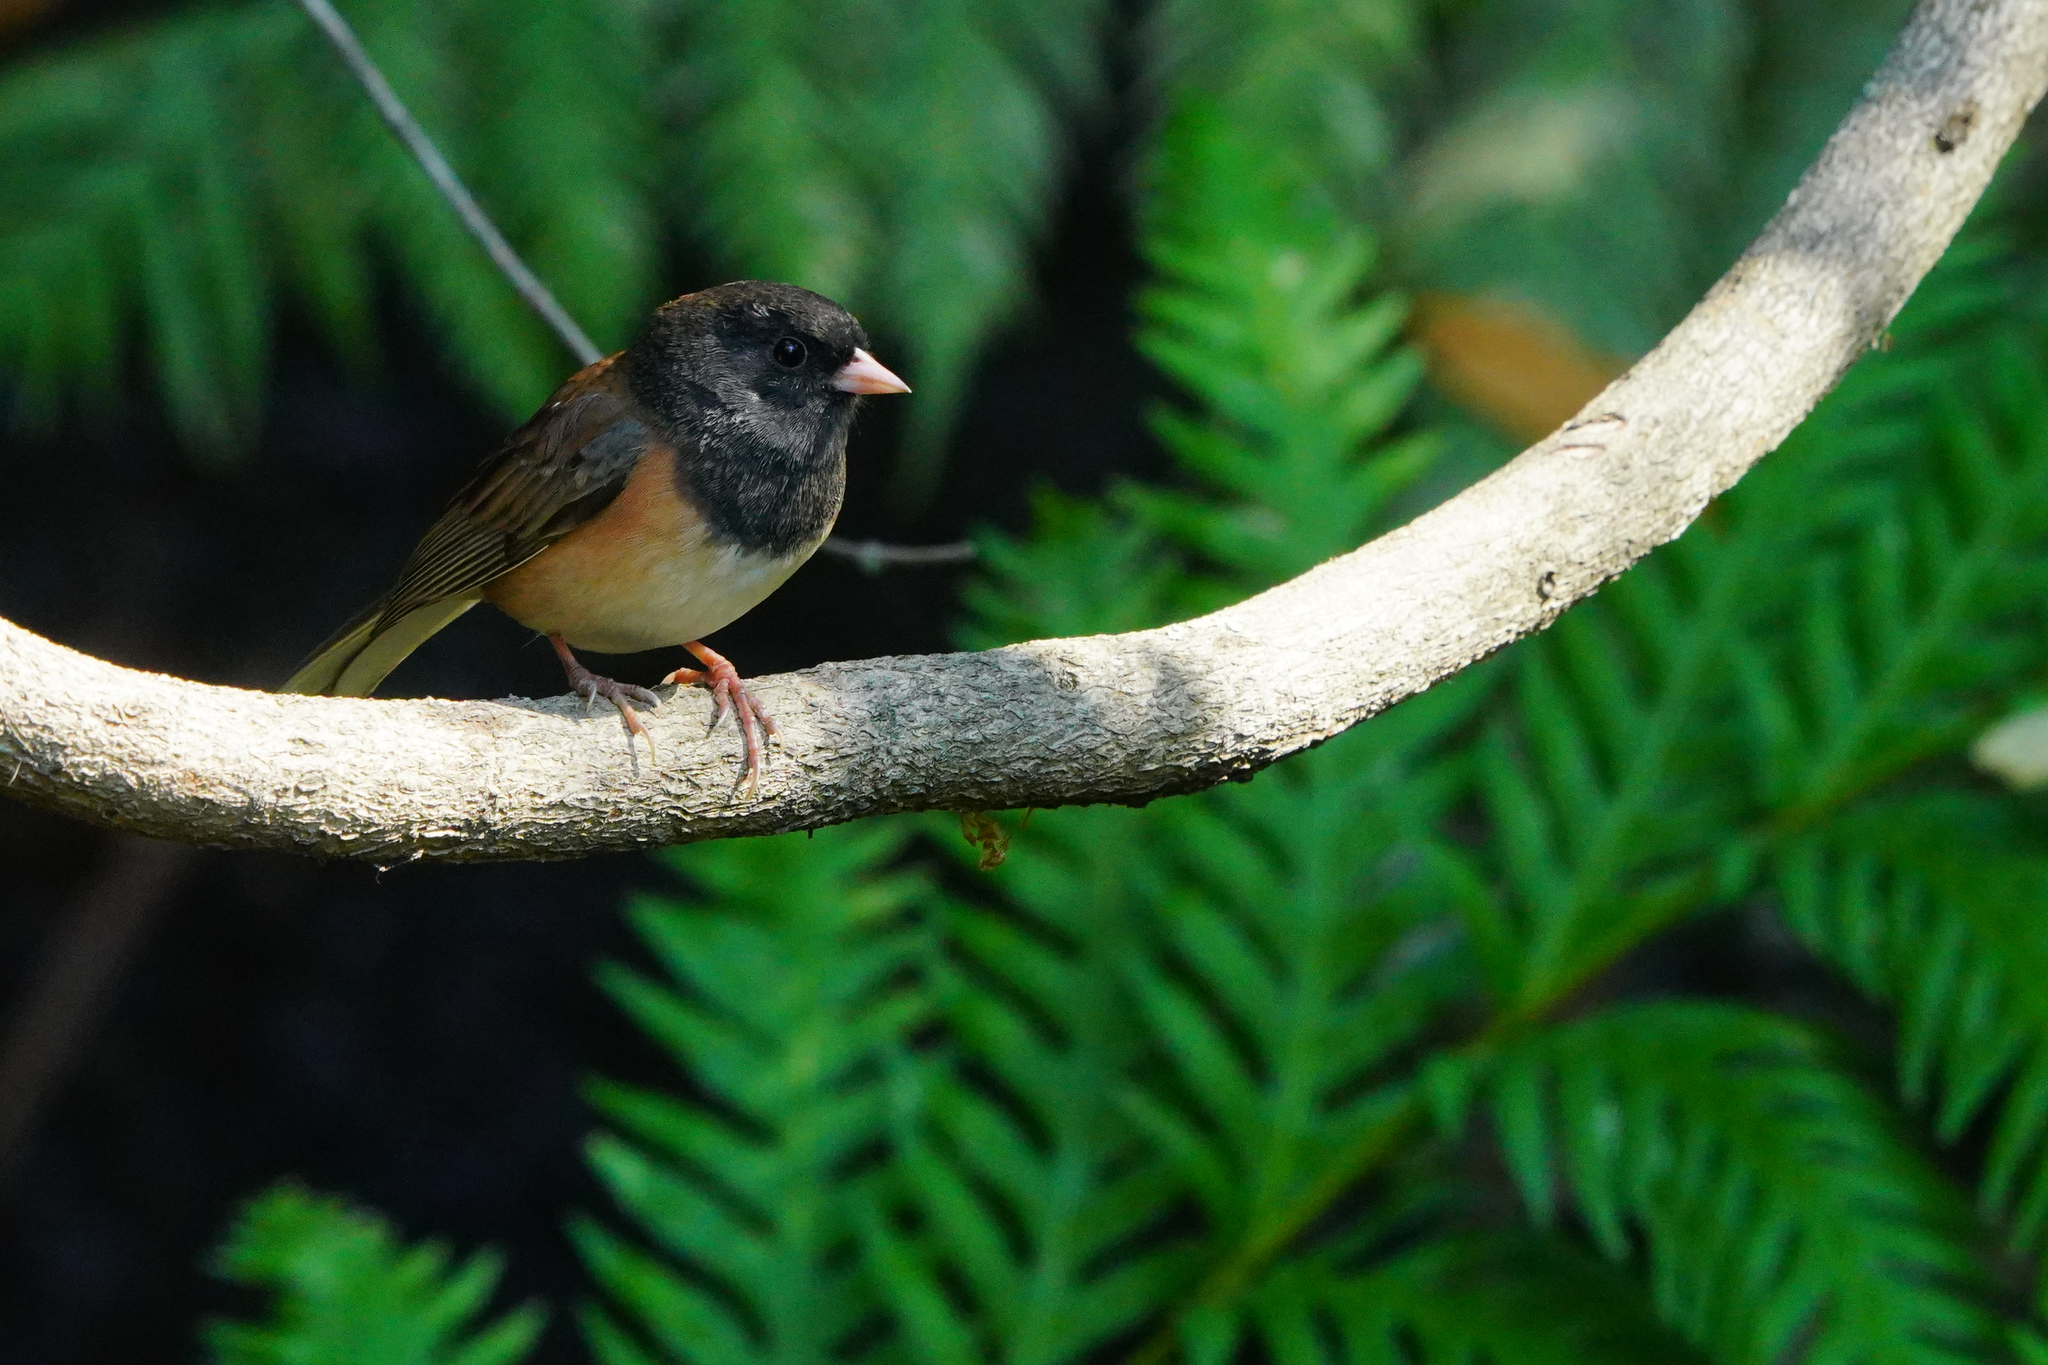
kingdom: Animalia
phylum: Chordata
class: Aves
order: Passeriformes
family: Passerellidae
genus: Junco
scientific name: Junco hyemalis
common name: Dark-eyed junco
